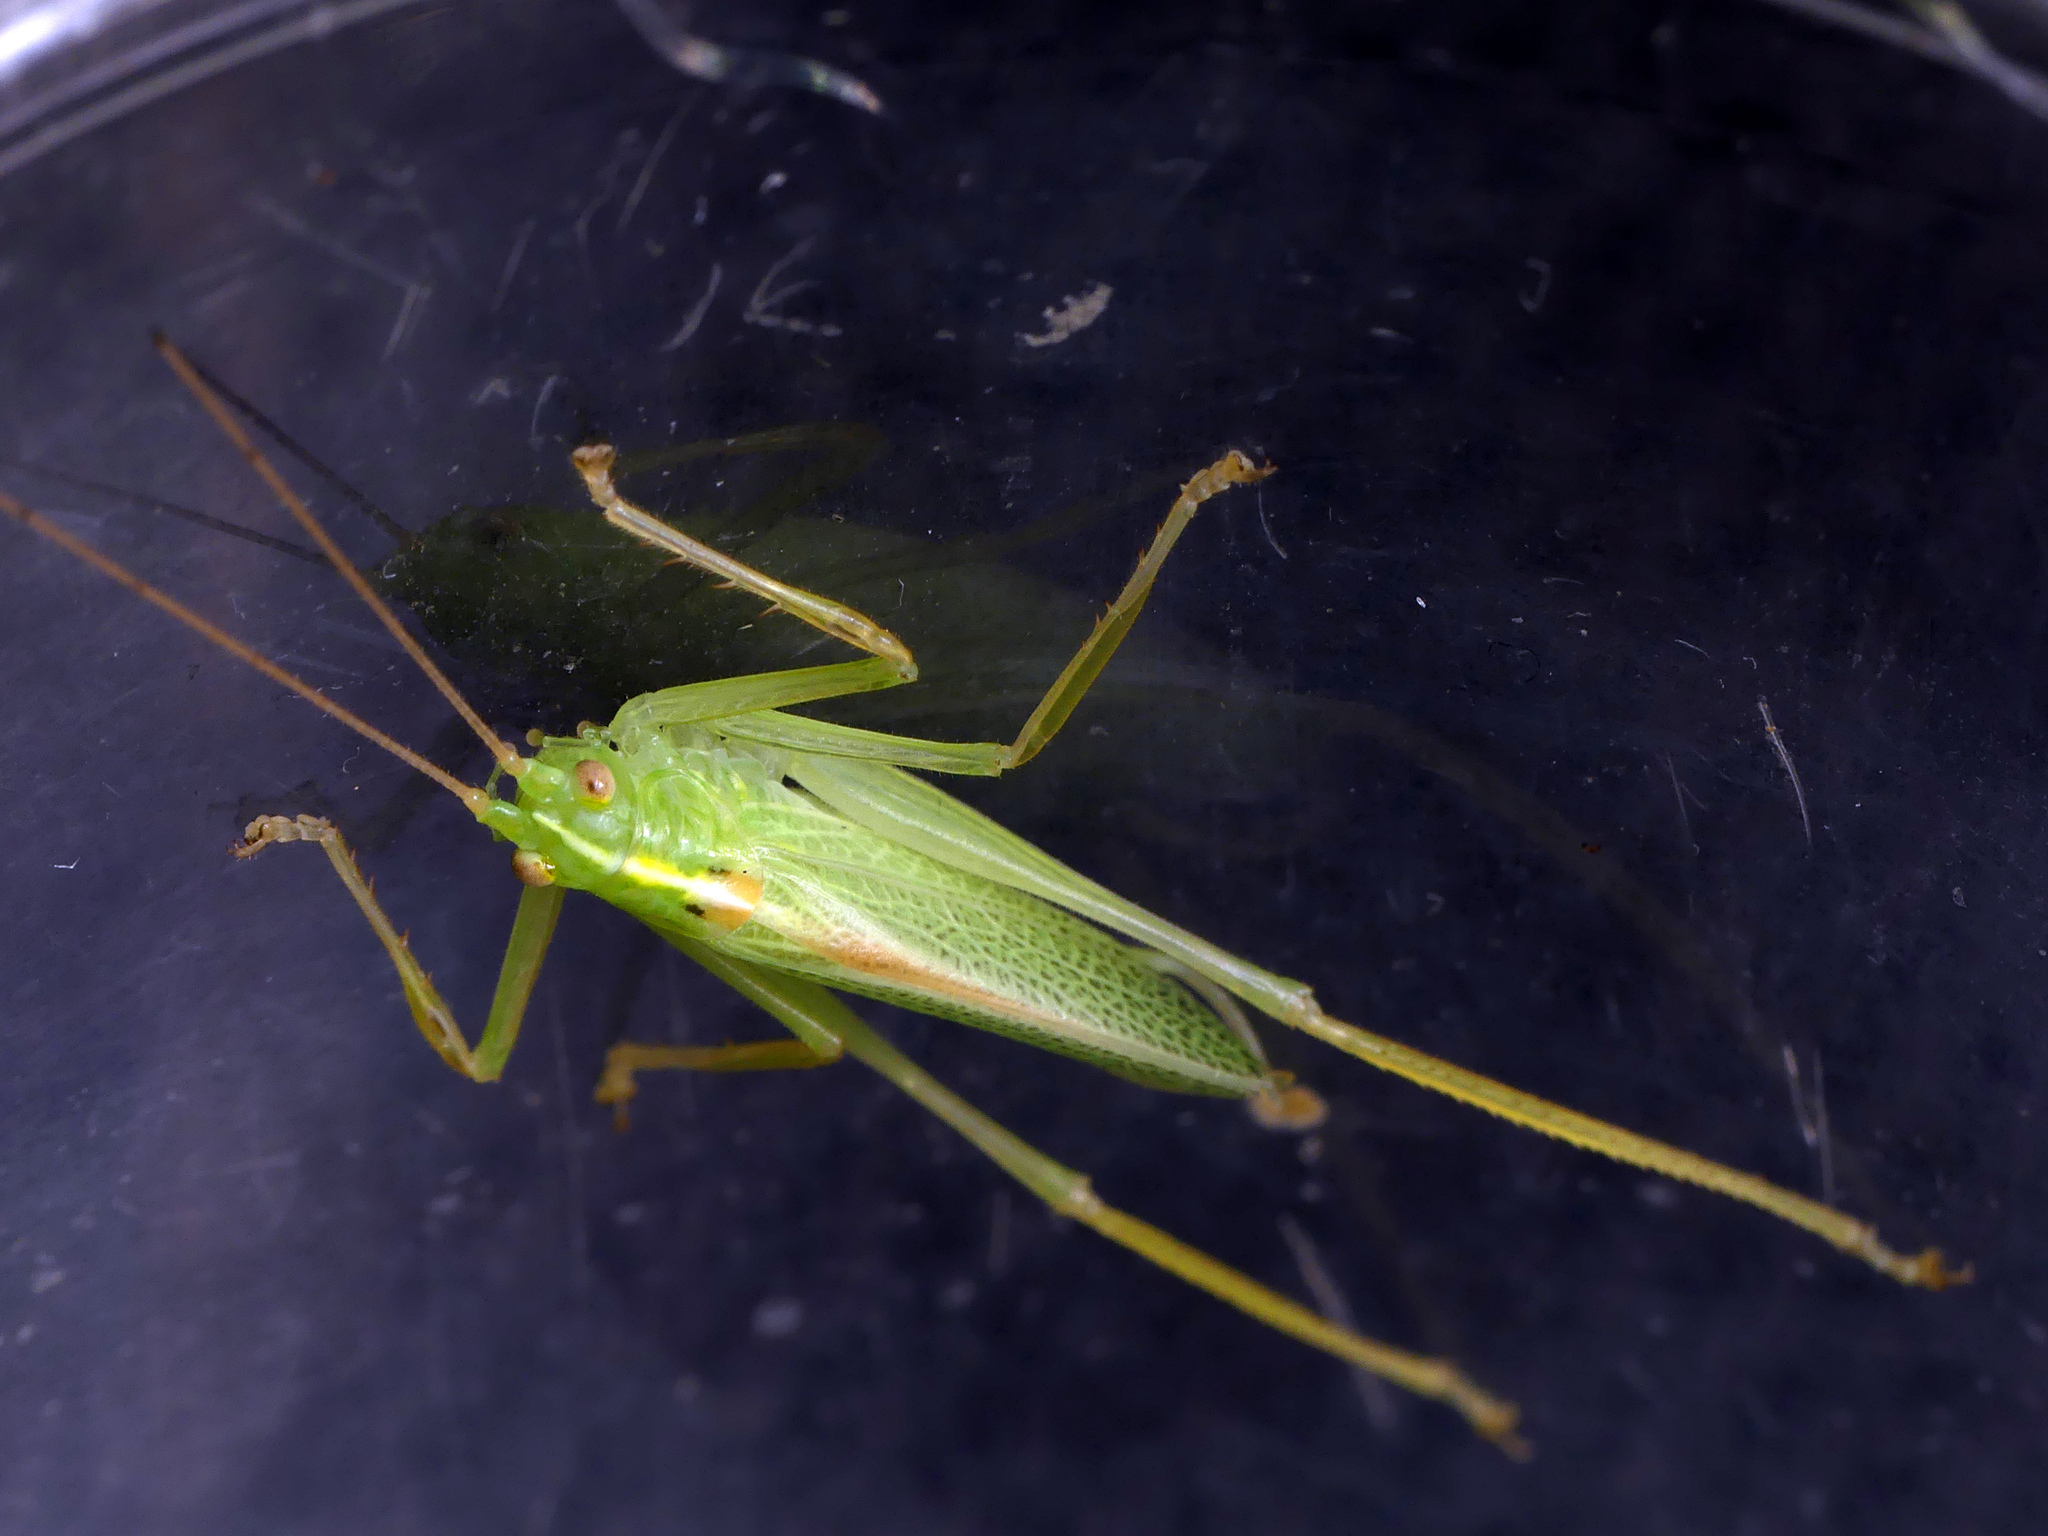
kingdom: Animalia
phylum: Arthropoda
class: Insecta
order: Orthoptera
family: Tettigoniidae
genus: Meconema
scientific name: Meconema thalassinum
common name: Oak bush-cricket
